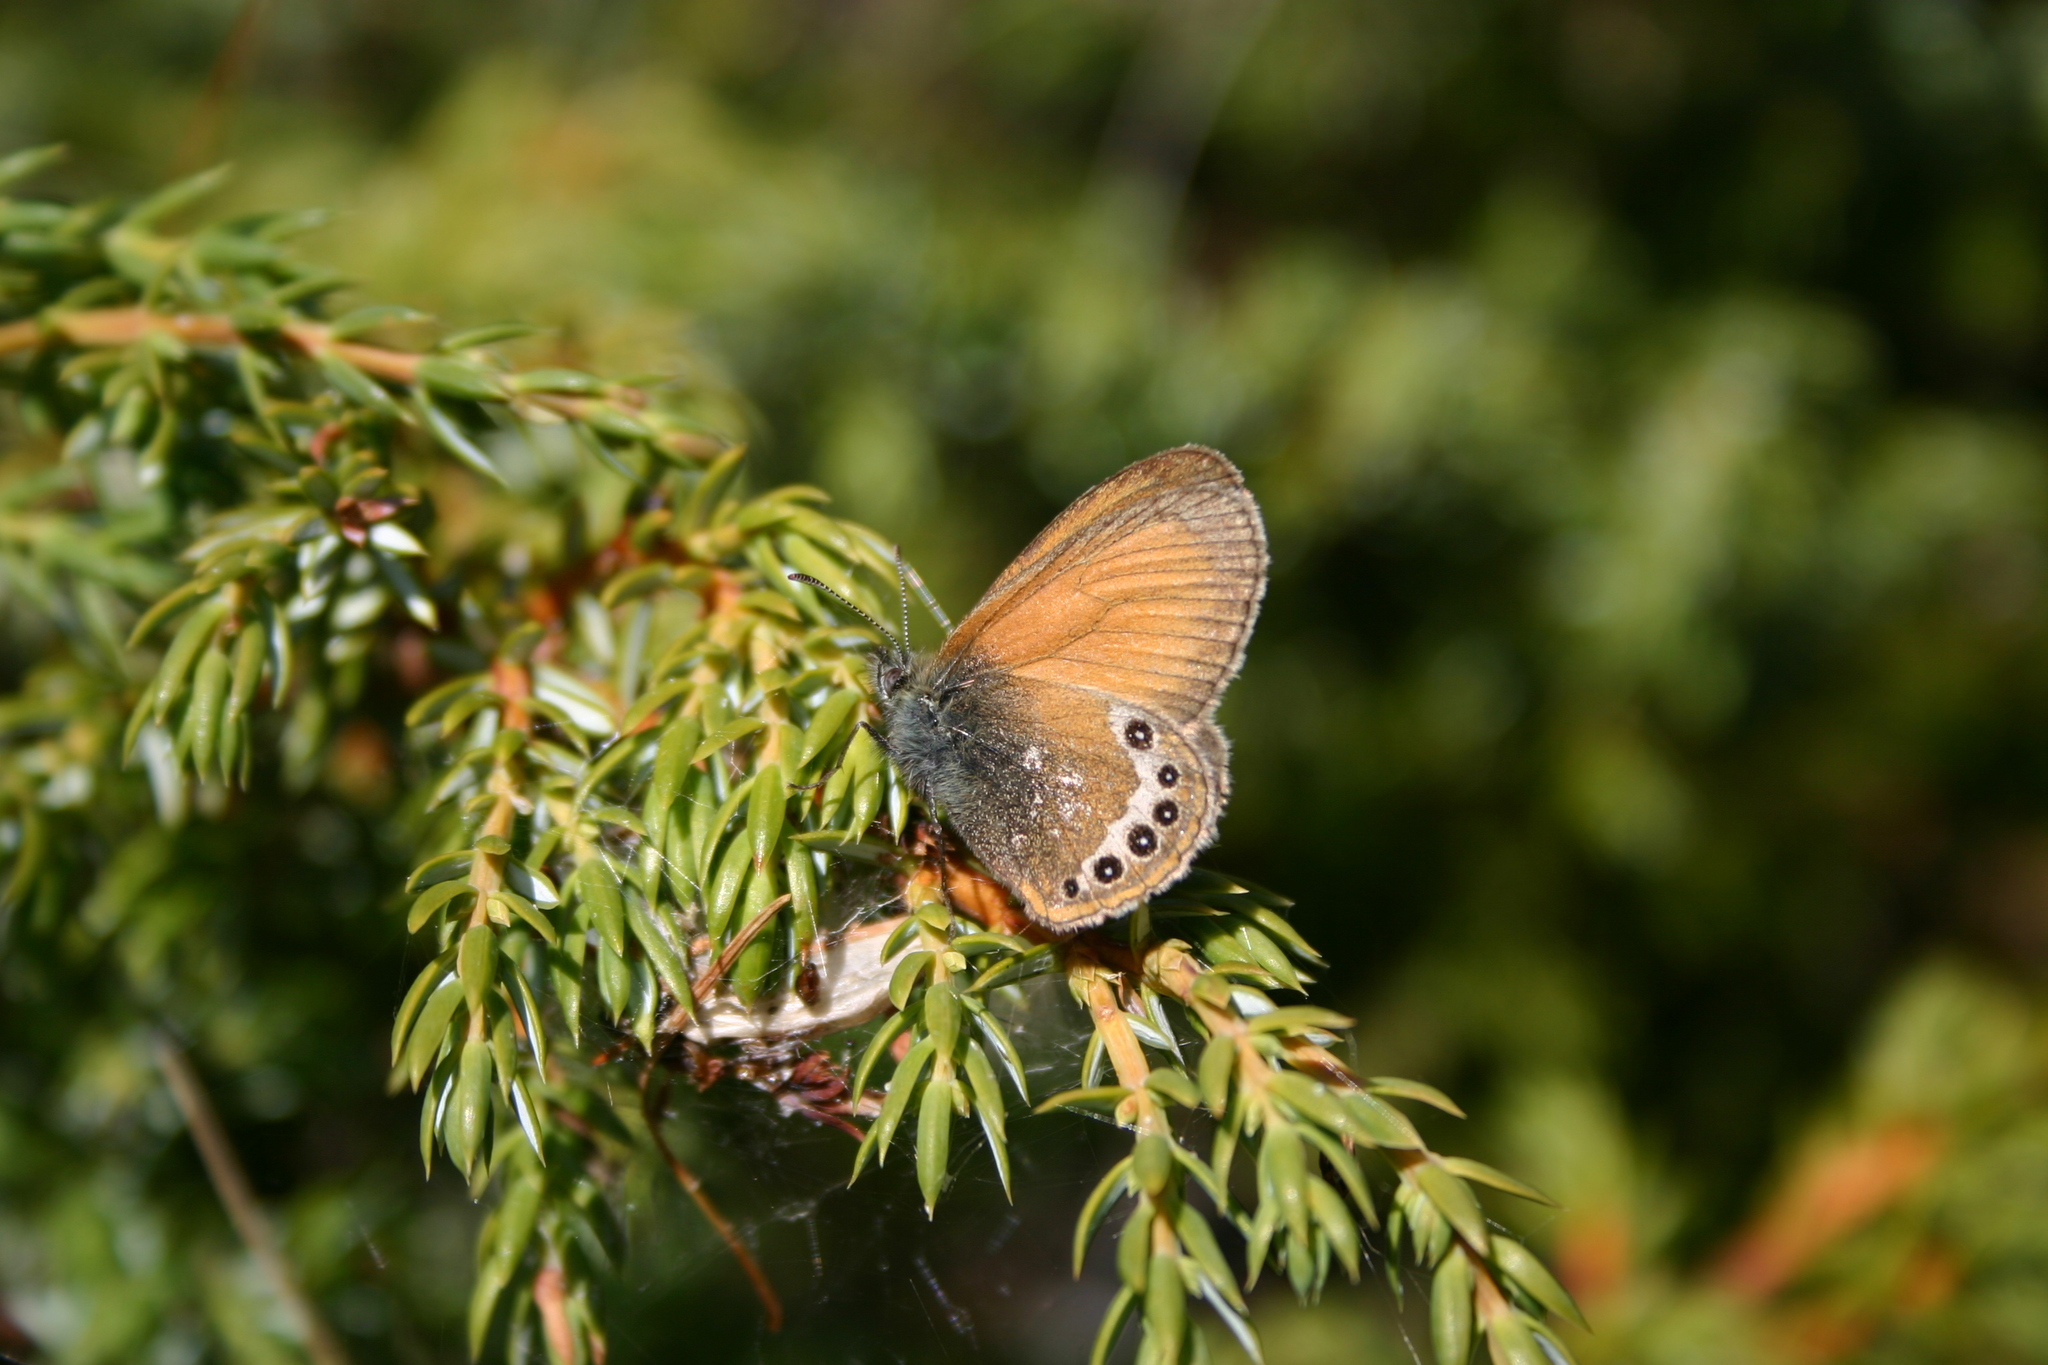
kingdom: Animalia
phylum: Arthropoda
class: Insecta
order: Lepidoptera
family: Nymphalidae
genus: Coenonympha
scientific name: Coenonympha
